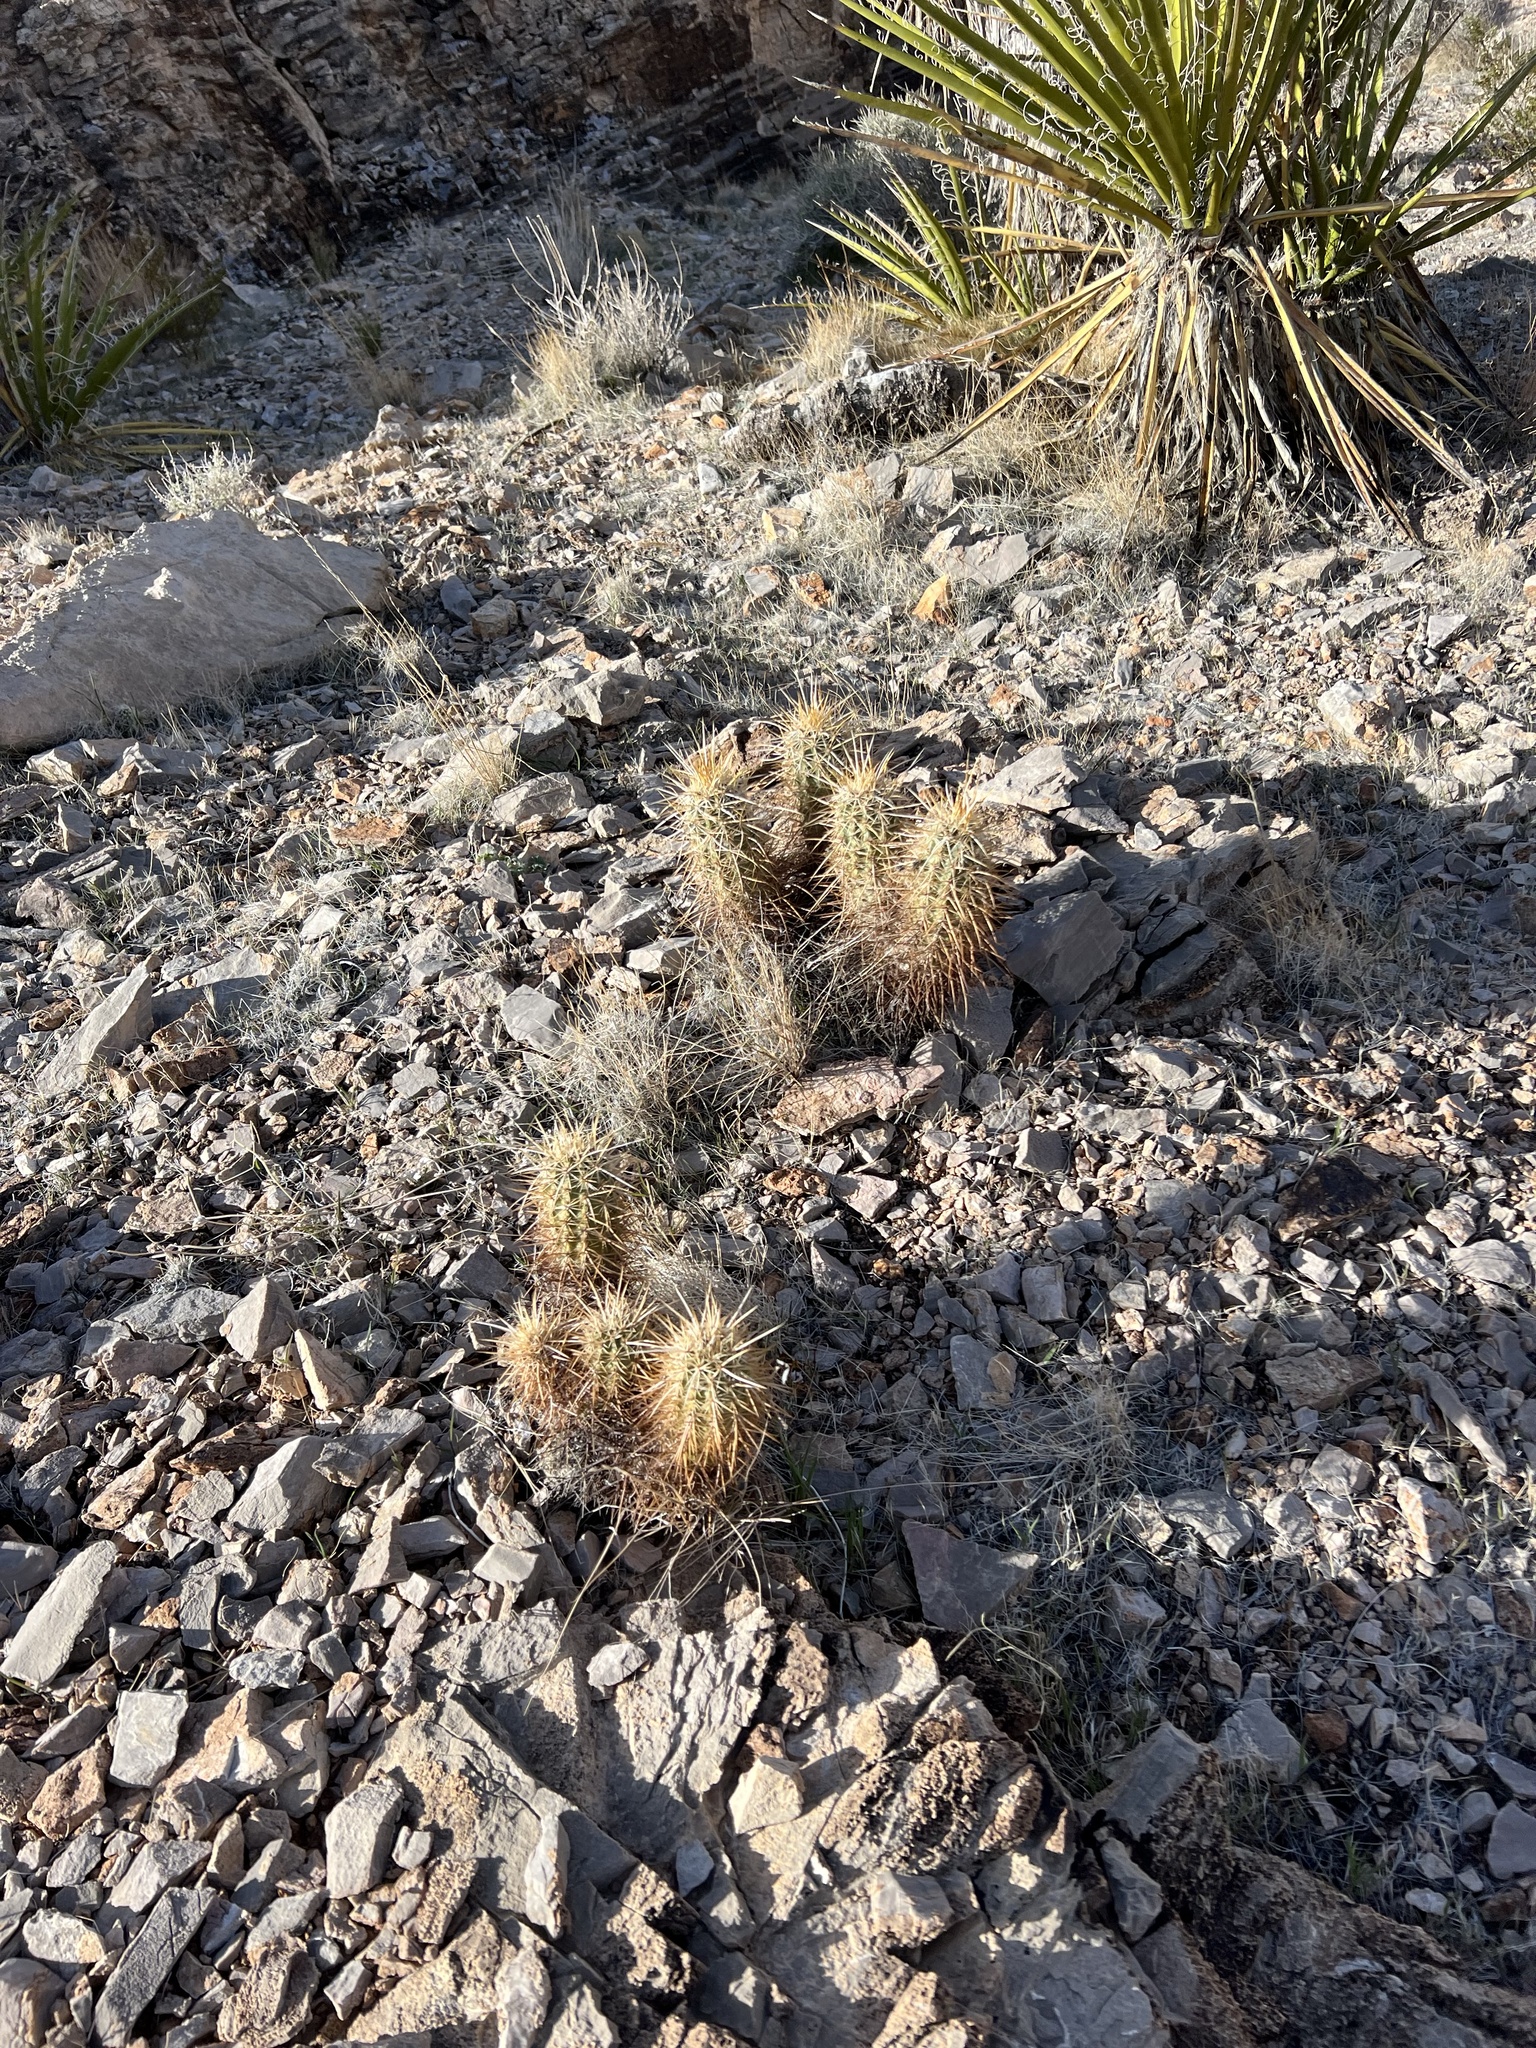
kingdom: Plantae
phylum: Tracheophyta
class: Magnoliopsida
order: Caryophyllales
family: Cactaceae
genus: Echinocereus
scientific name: Echinocereus engelmannii
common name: Engelmann's hedgehog cactus
